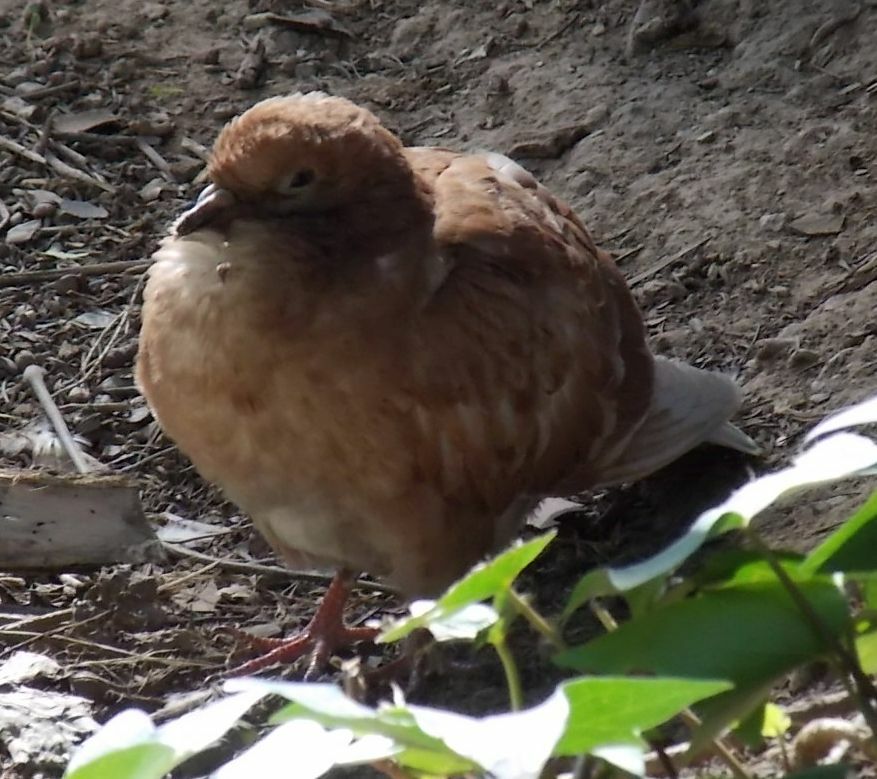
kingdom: Animalia
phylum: Chordata
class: Aves
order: Columbiformes
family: Columbidae
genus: Columba
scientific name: Columba livia
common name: Rock pigeon
